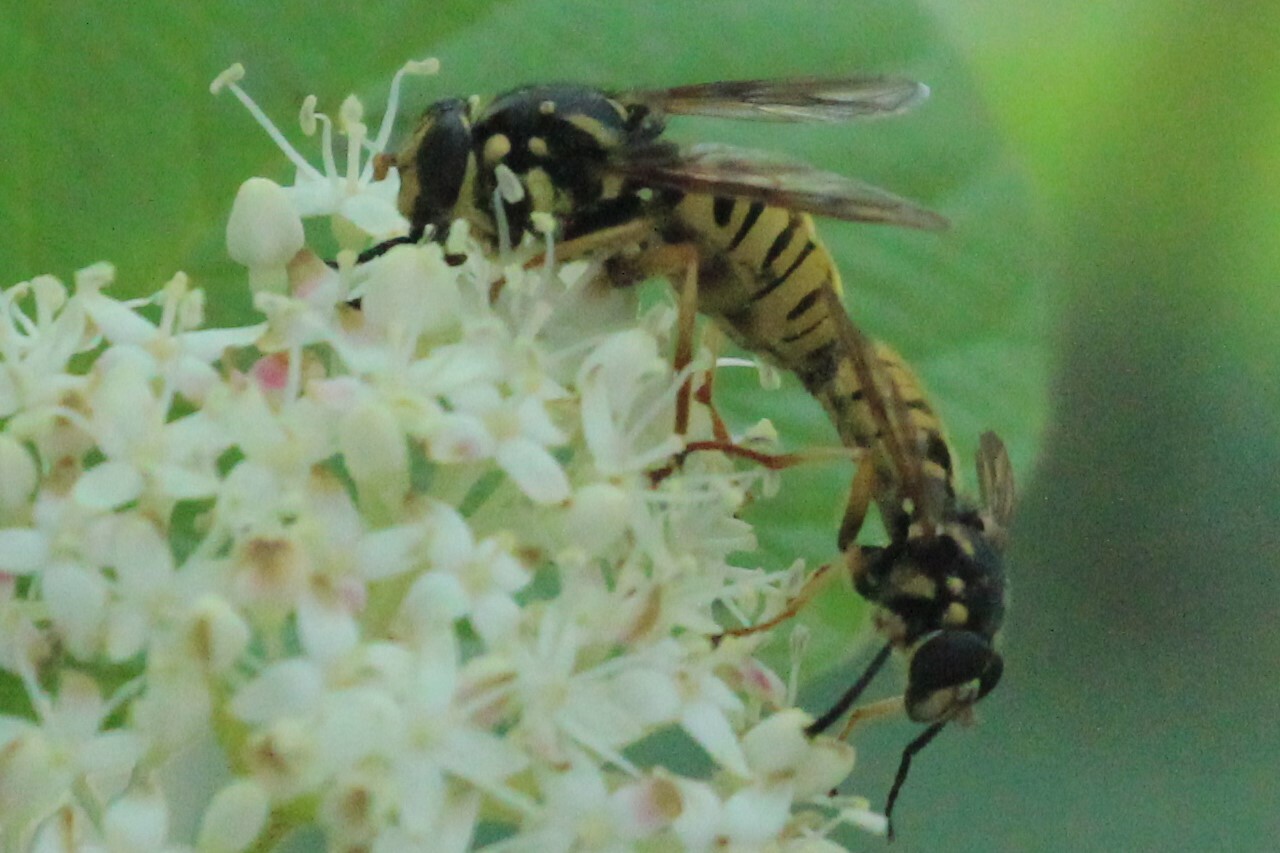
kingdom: Animalia
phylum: Arthropoda
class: Insecta
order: Diptera
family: Syrphidae
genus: Temnostoma
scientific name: Temnostoma alternans
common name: Wasp-like falsehorn
